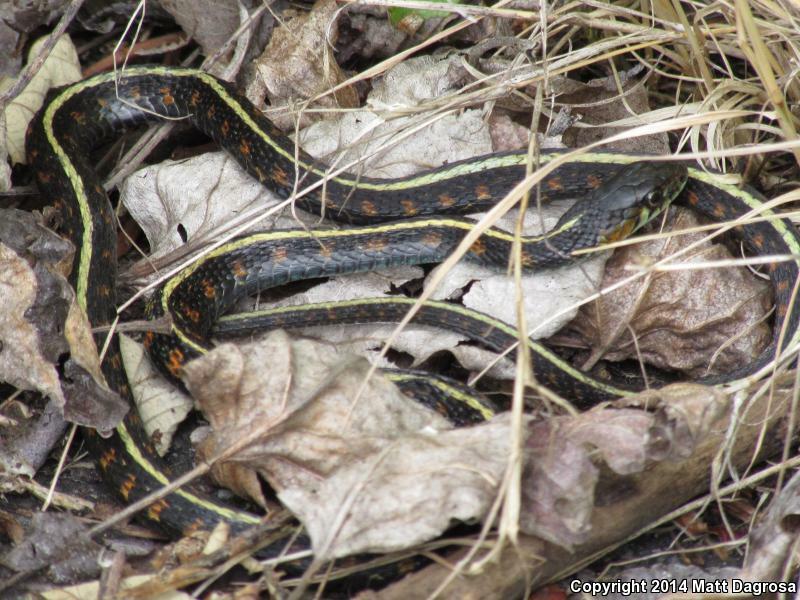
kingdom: Animalia
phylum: Chordata
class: Squamata
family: Colubridae
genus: Thamnophis
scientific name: Thamnophis sirtalis
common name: Common garter snake
